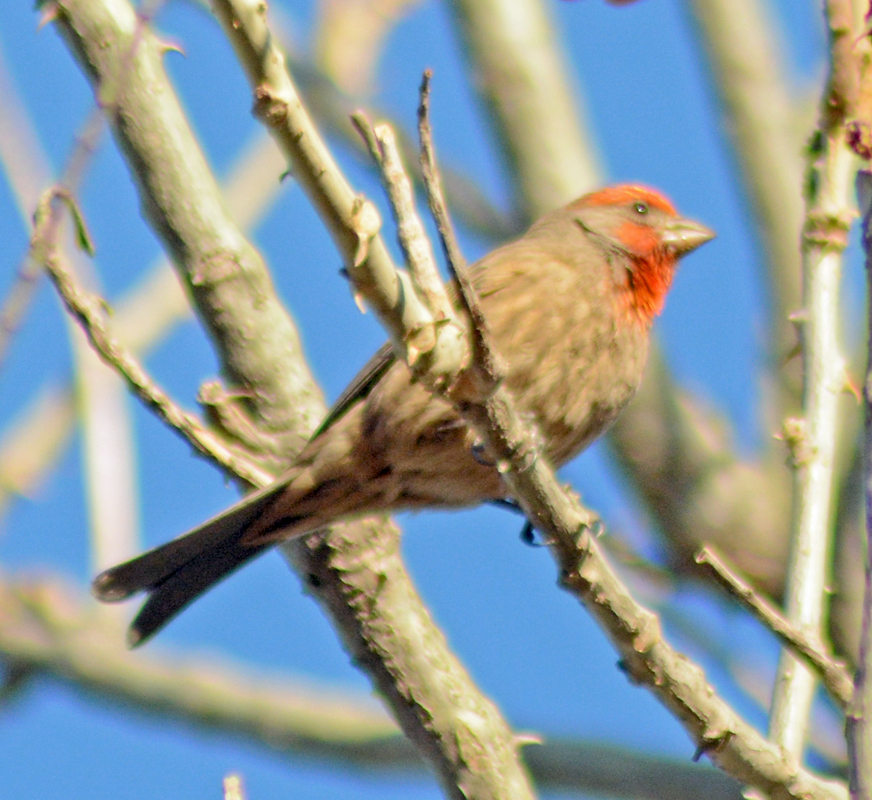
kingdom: Animalia
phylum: Chordata
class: Aves
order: Passeriformes
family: Fringillidae
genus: Haemorhous
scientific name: Haemorhous mexicanus
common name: House finch
